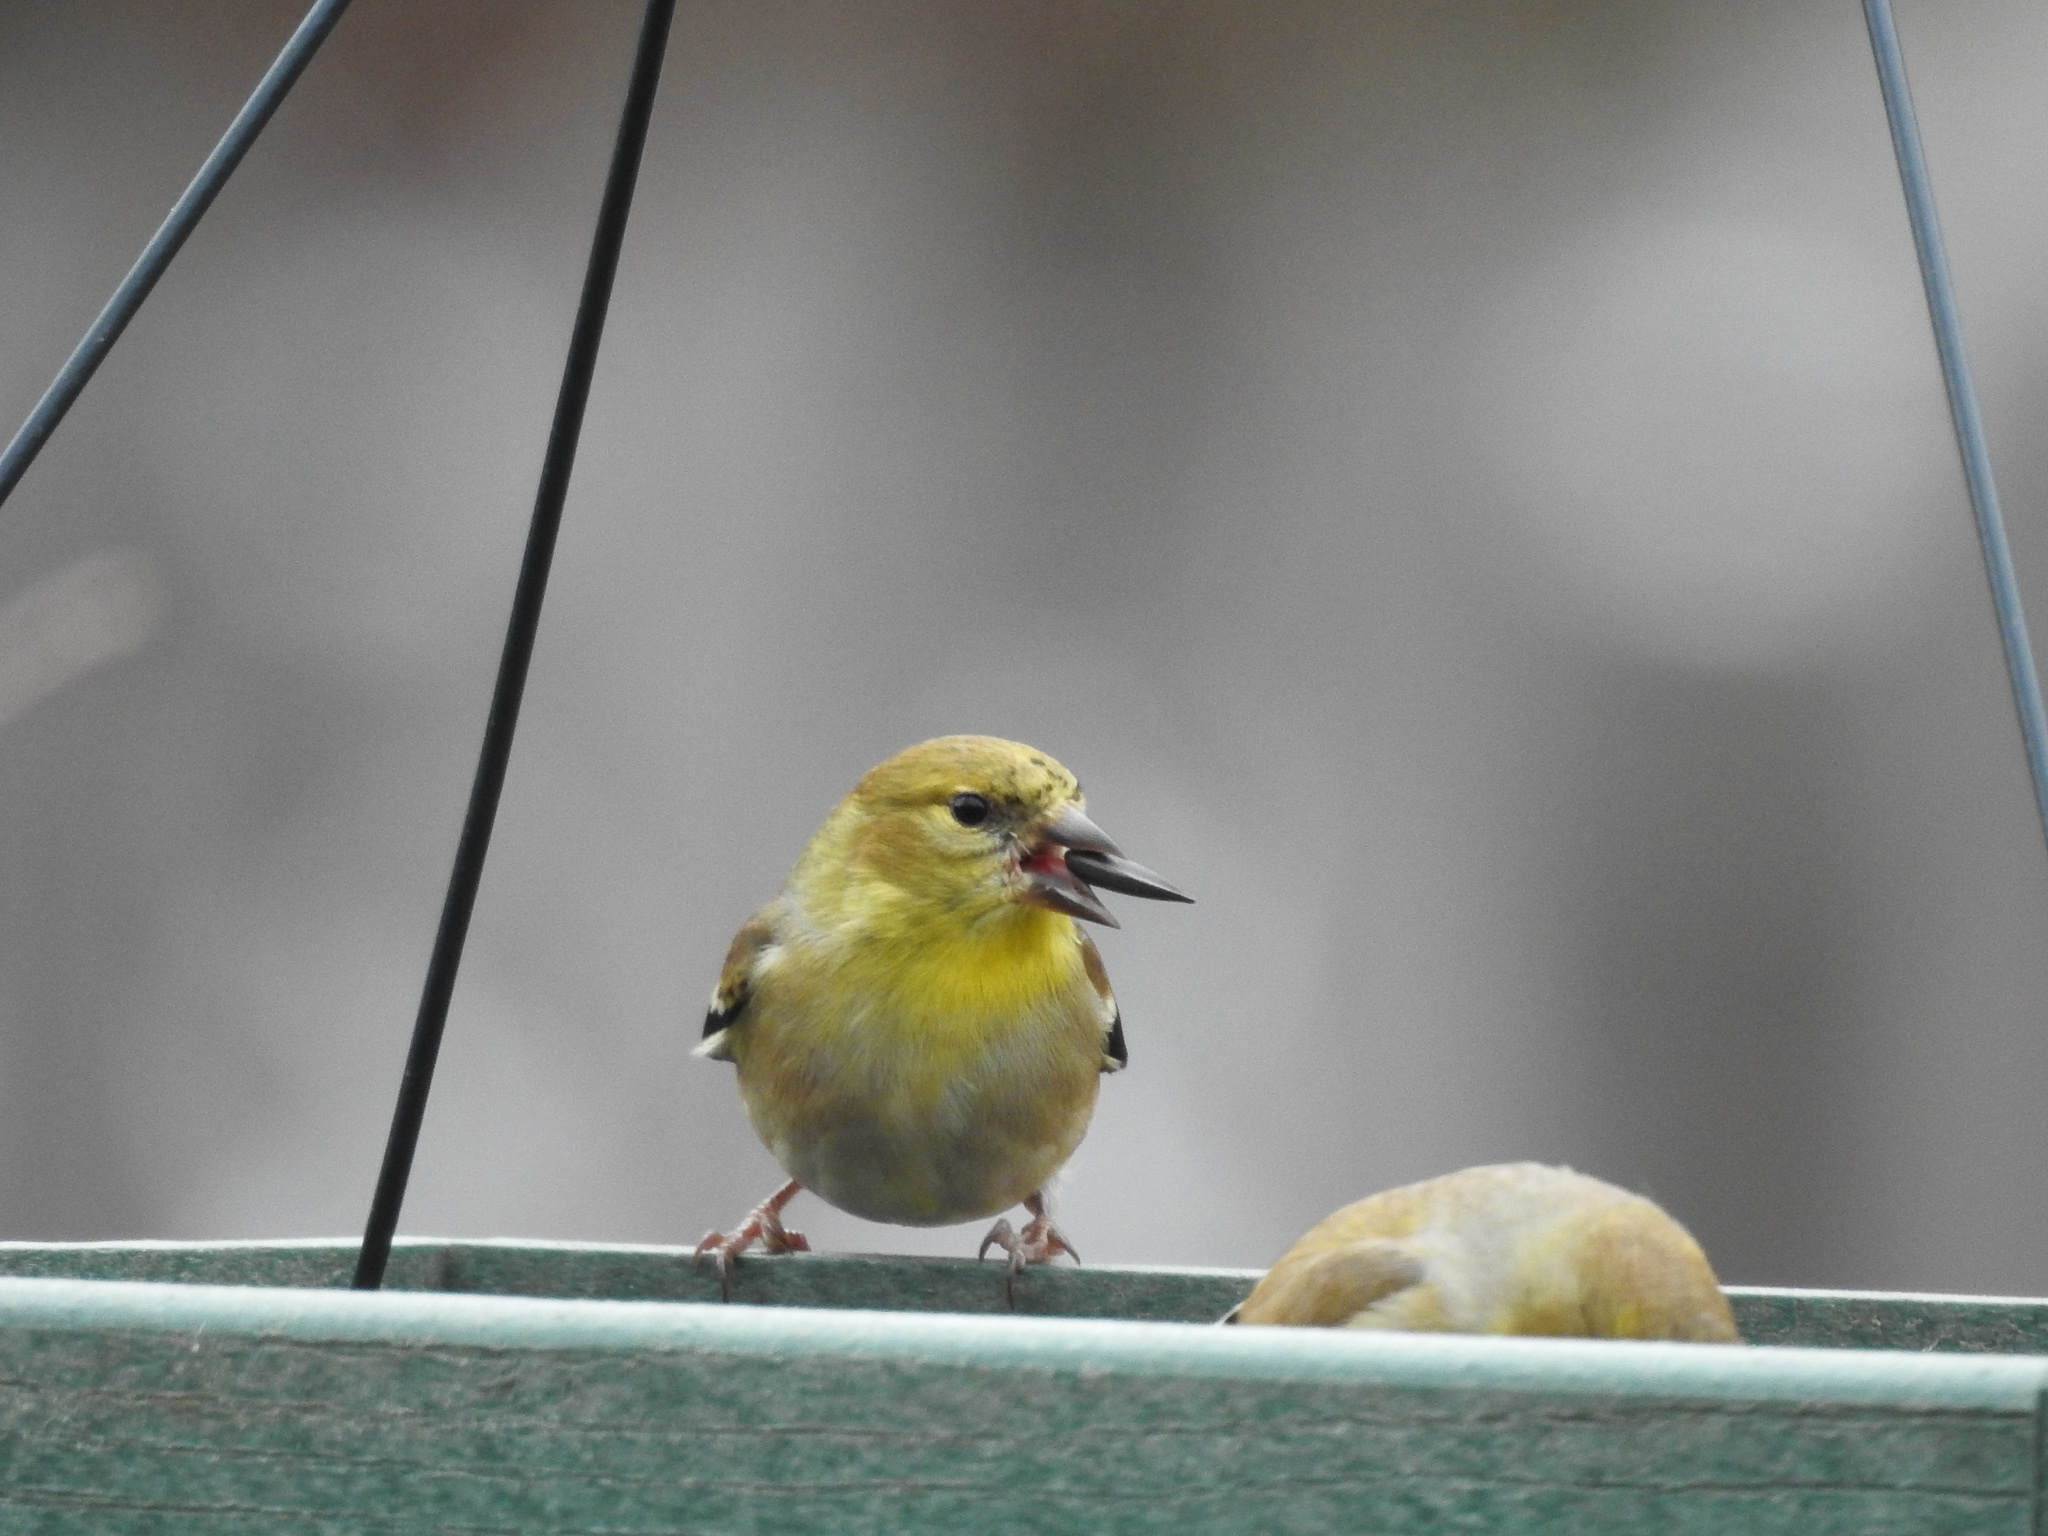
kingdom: Animalia
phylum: Chordata
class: Aves
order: Passeriformes
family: Fringillidae
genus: Spinus
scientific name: Spinus tristis
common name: American goldfinch
